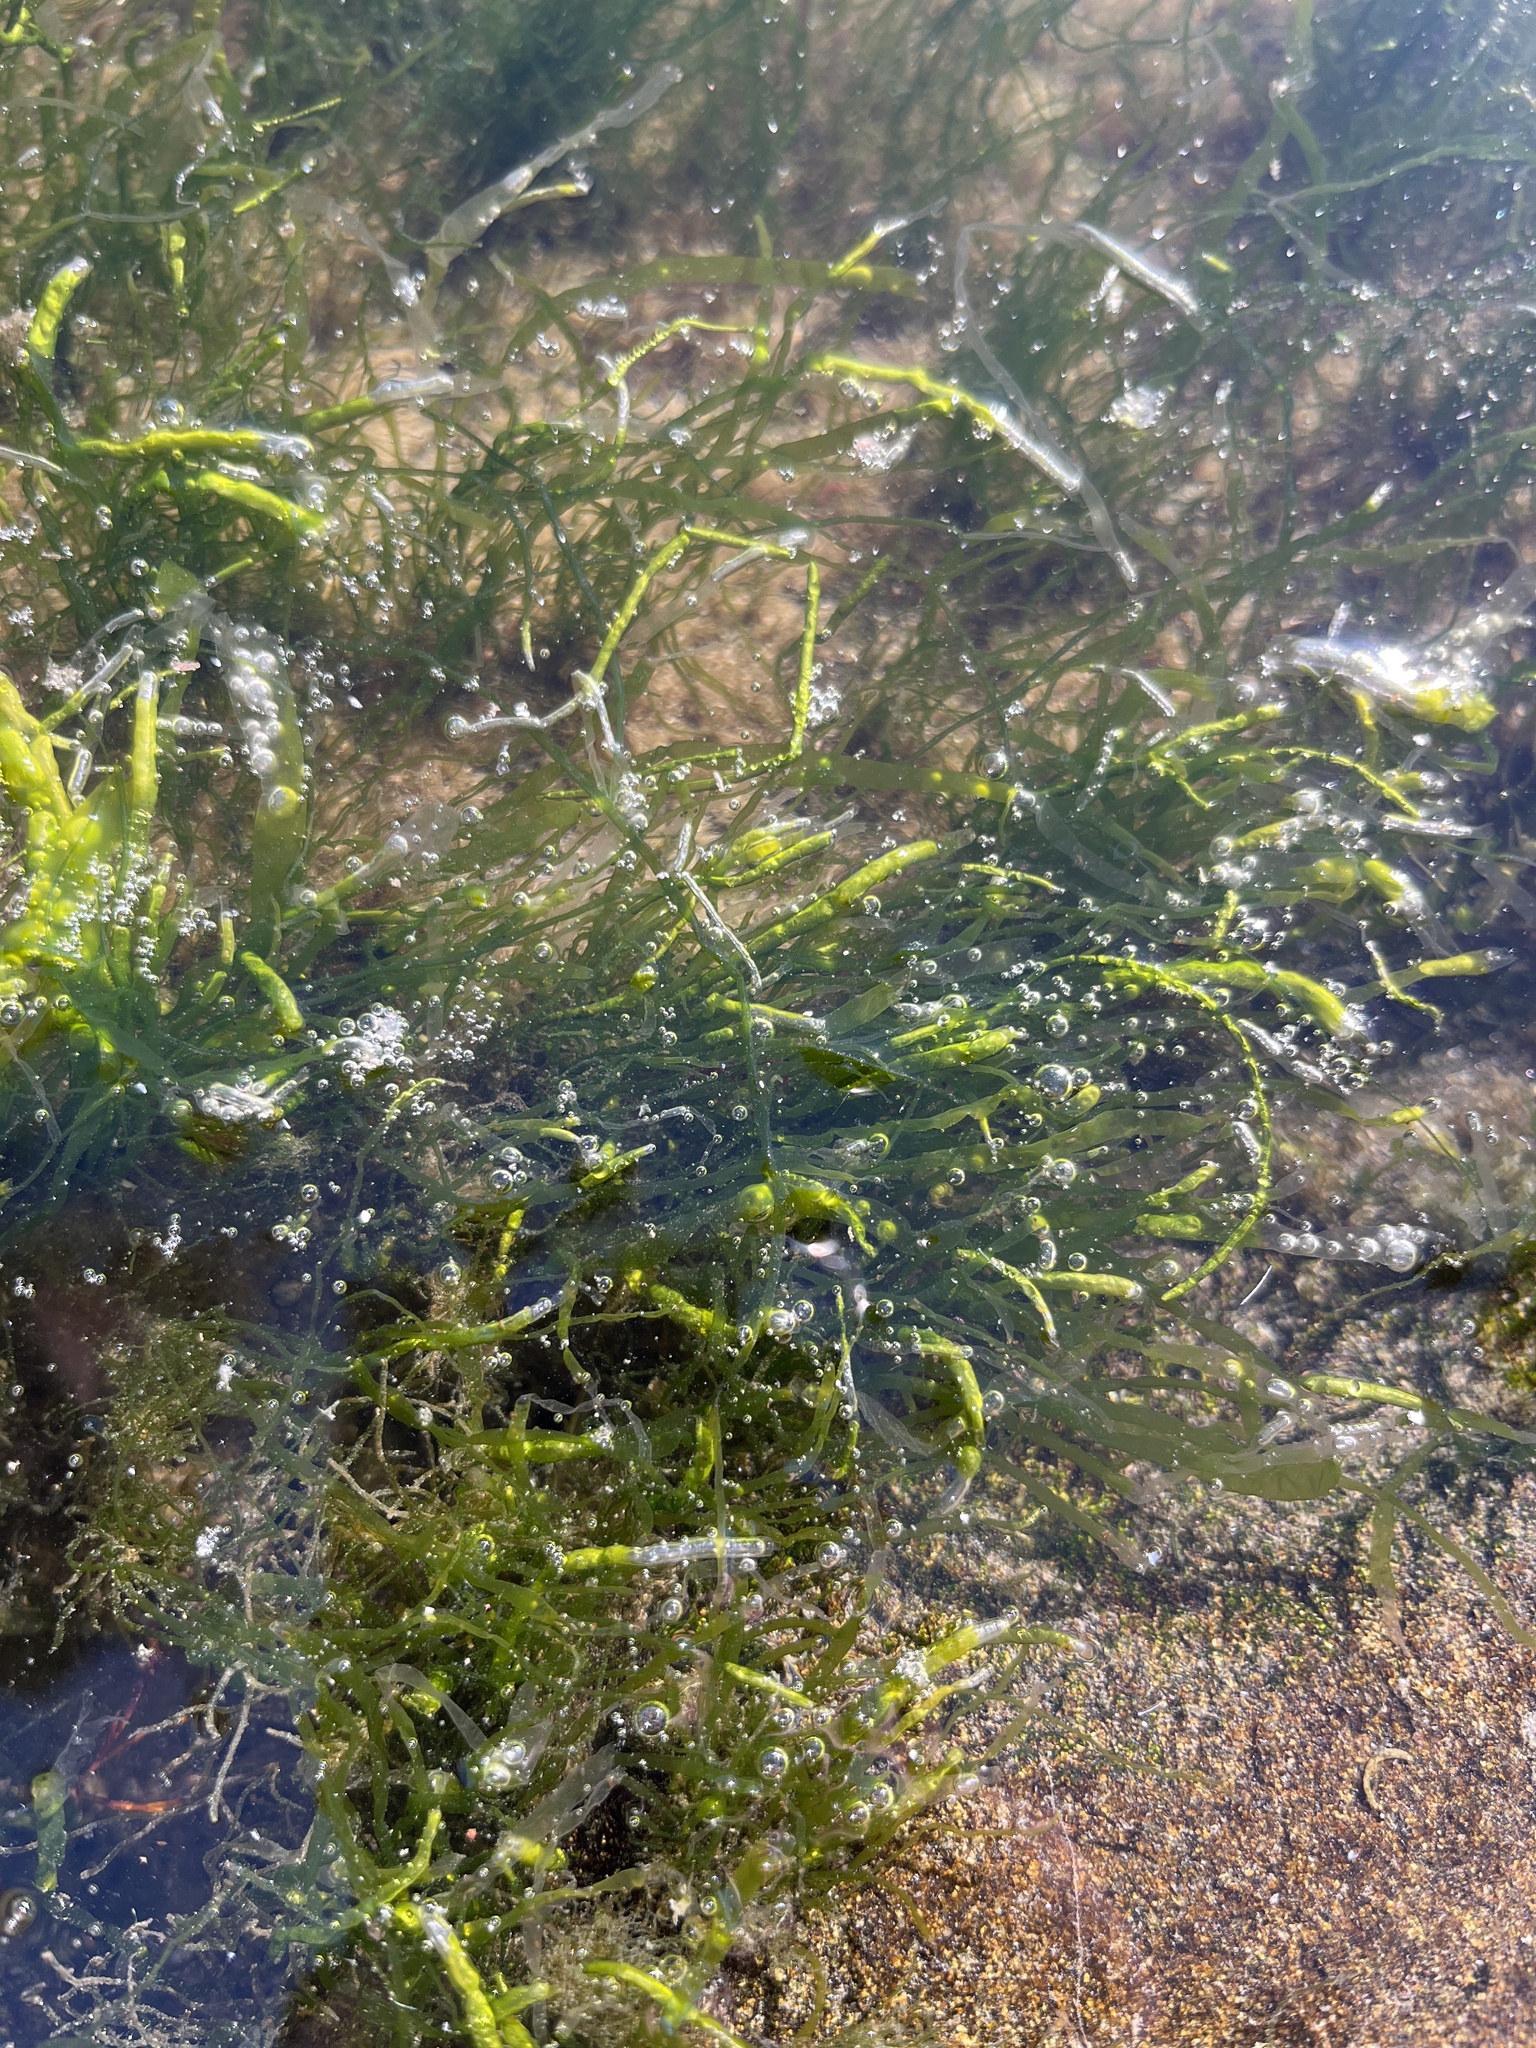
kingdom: Plantae
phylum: Chlorophyta
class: Ulvophyceae
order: Ulvales
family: Ulvaceae
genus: Ulva
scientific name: Ulva intestinalis
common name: Gut weed
